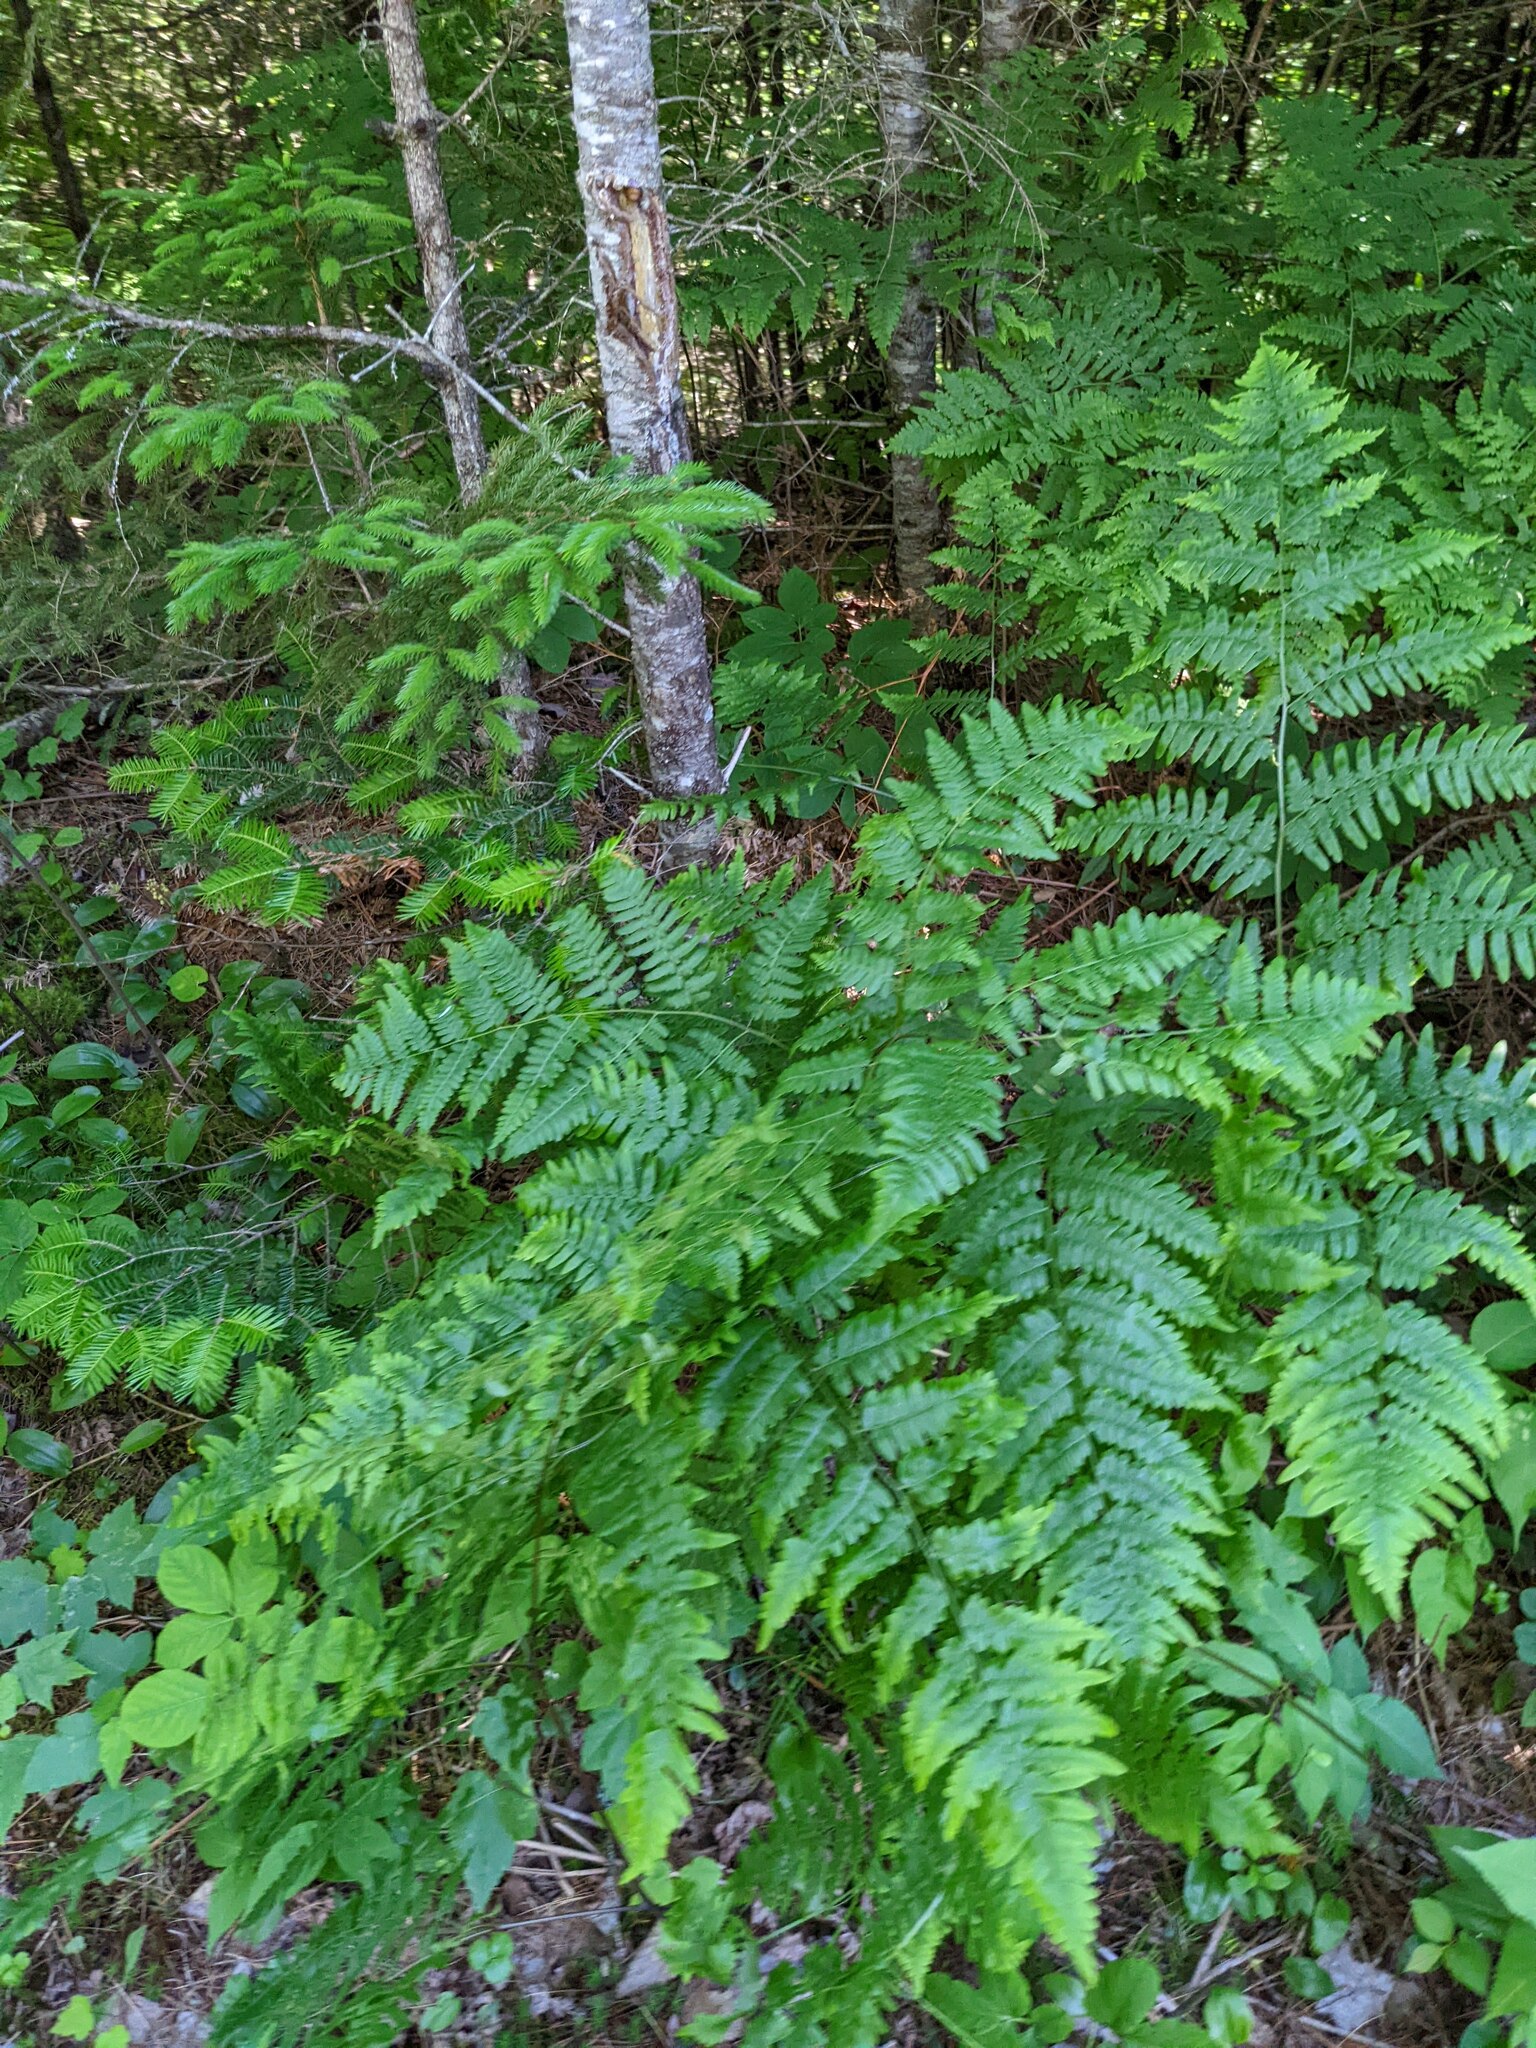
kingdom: Plantae
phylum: Tracheophyta
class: Polypodiopsida
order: Polypodiales
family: Dennstaedtiaceae
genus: Pteridium
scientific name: Pteridium aquilinum
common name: Bracken
